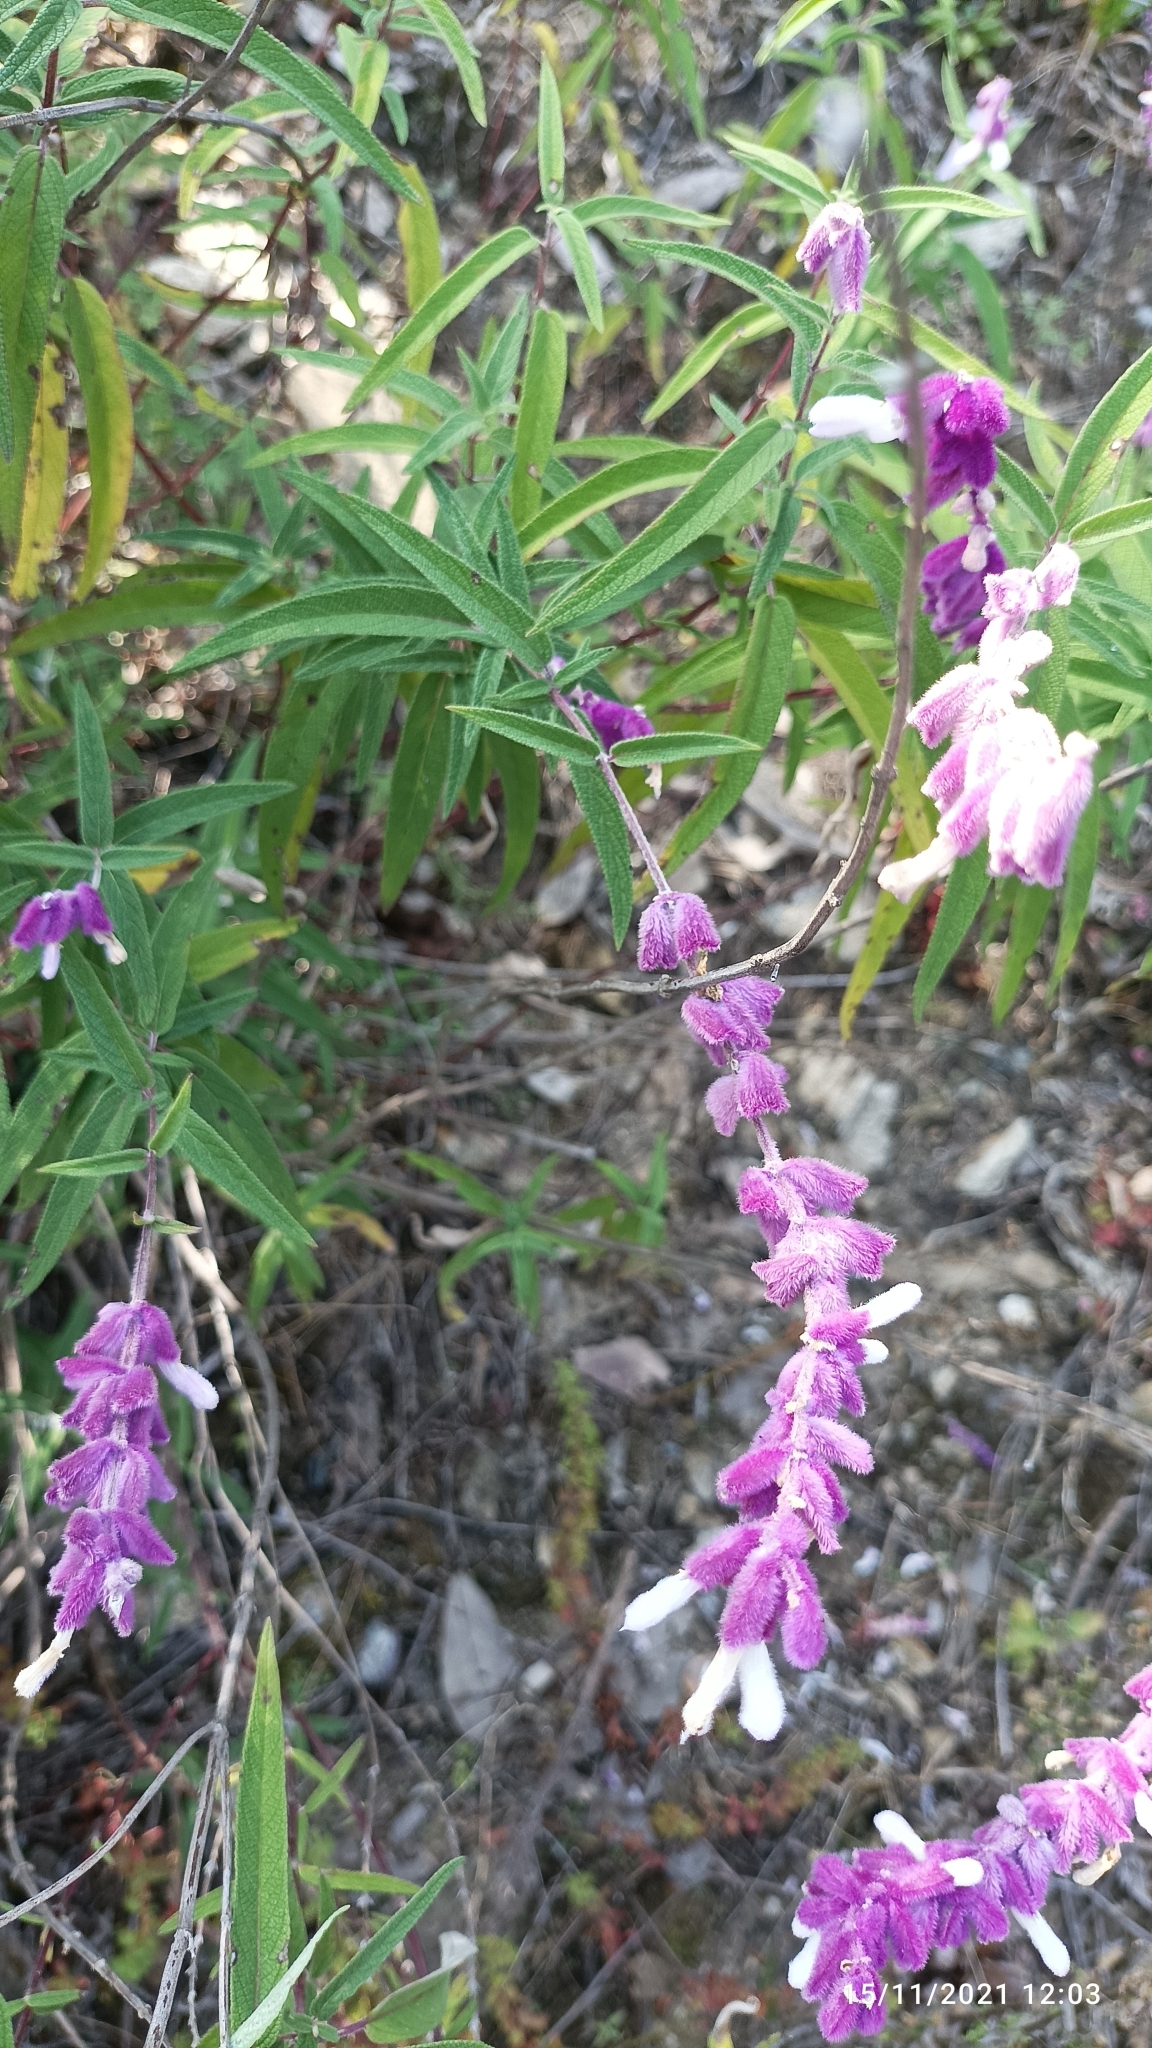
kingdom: Plantae
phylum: Tracheophyta
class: Magnoliopsida
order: Lamiales
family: Lamiaceae
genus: Salvia
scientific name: Salvia leucantha
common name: Mexican bush sage
